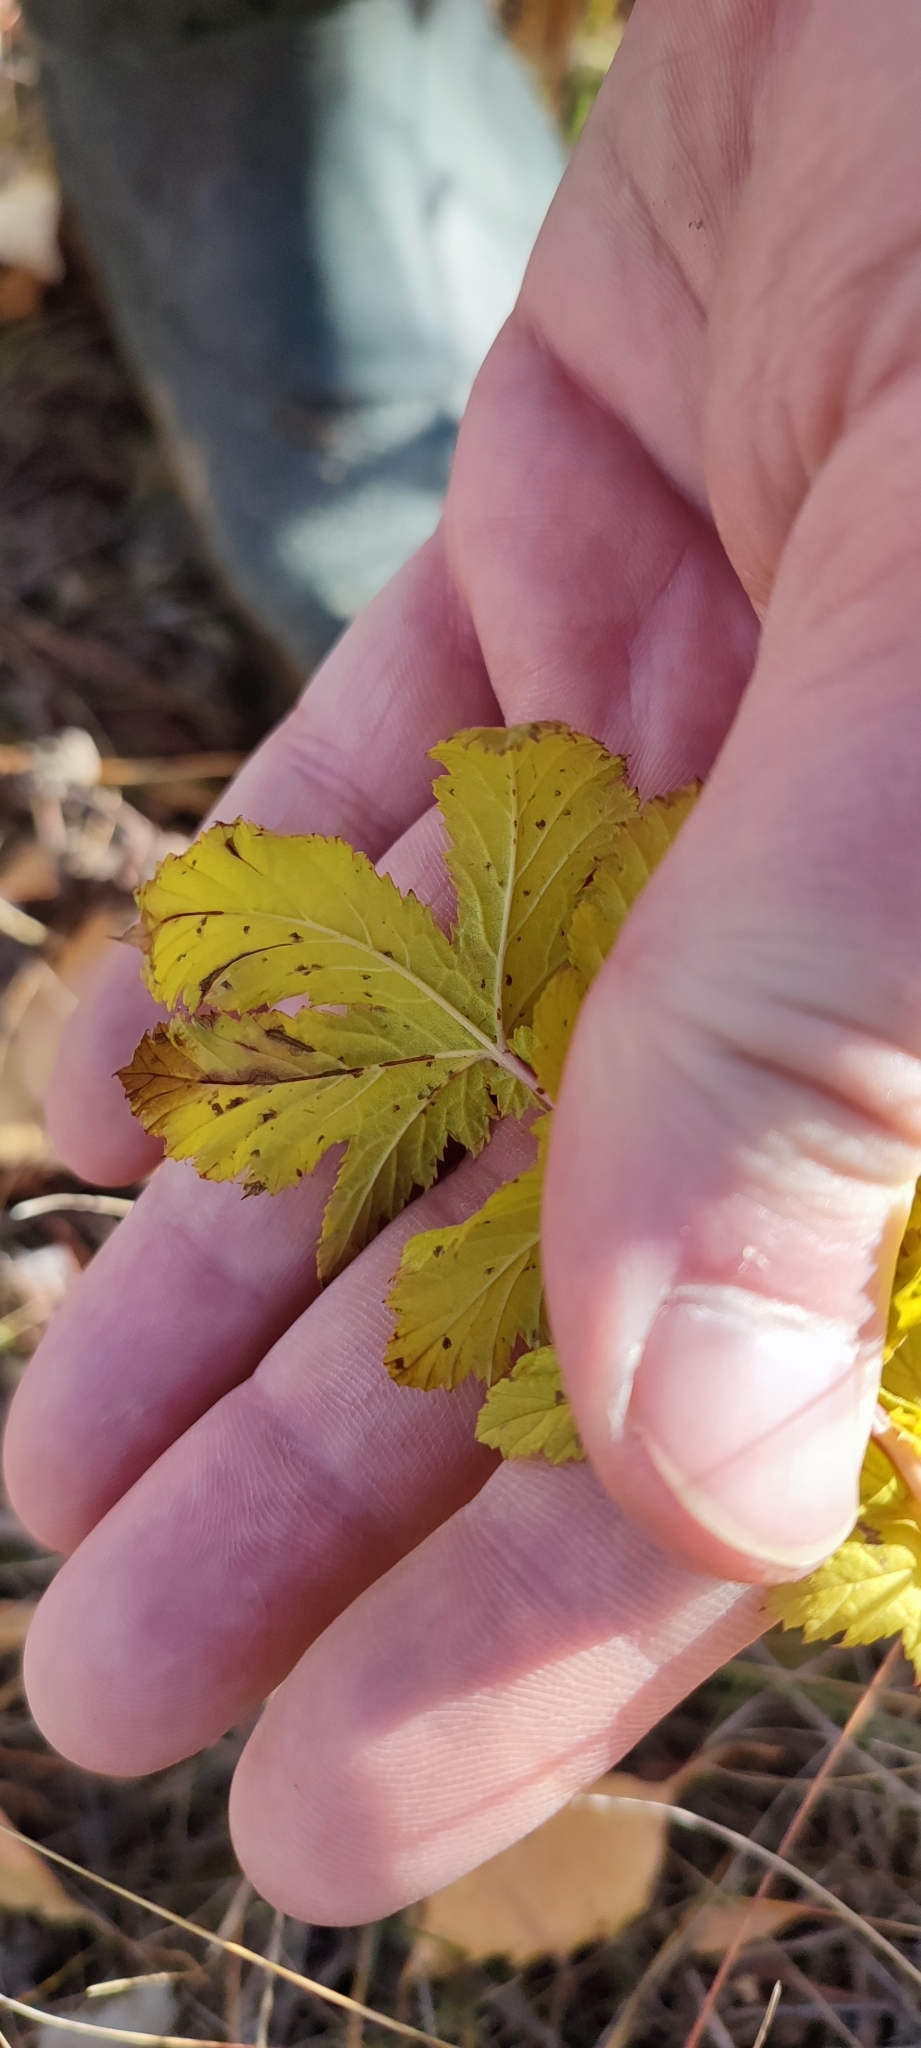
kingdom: Plantae
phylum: Tracheophyta
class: Magnoliopsida
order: Rosales
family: Rosaceae
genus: Filipendula
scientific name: Filipendula ulmaria
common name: Meadowsweet
